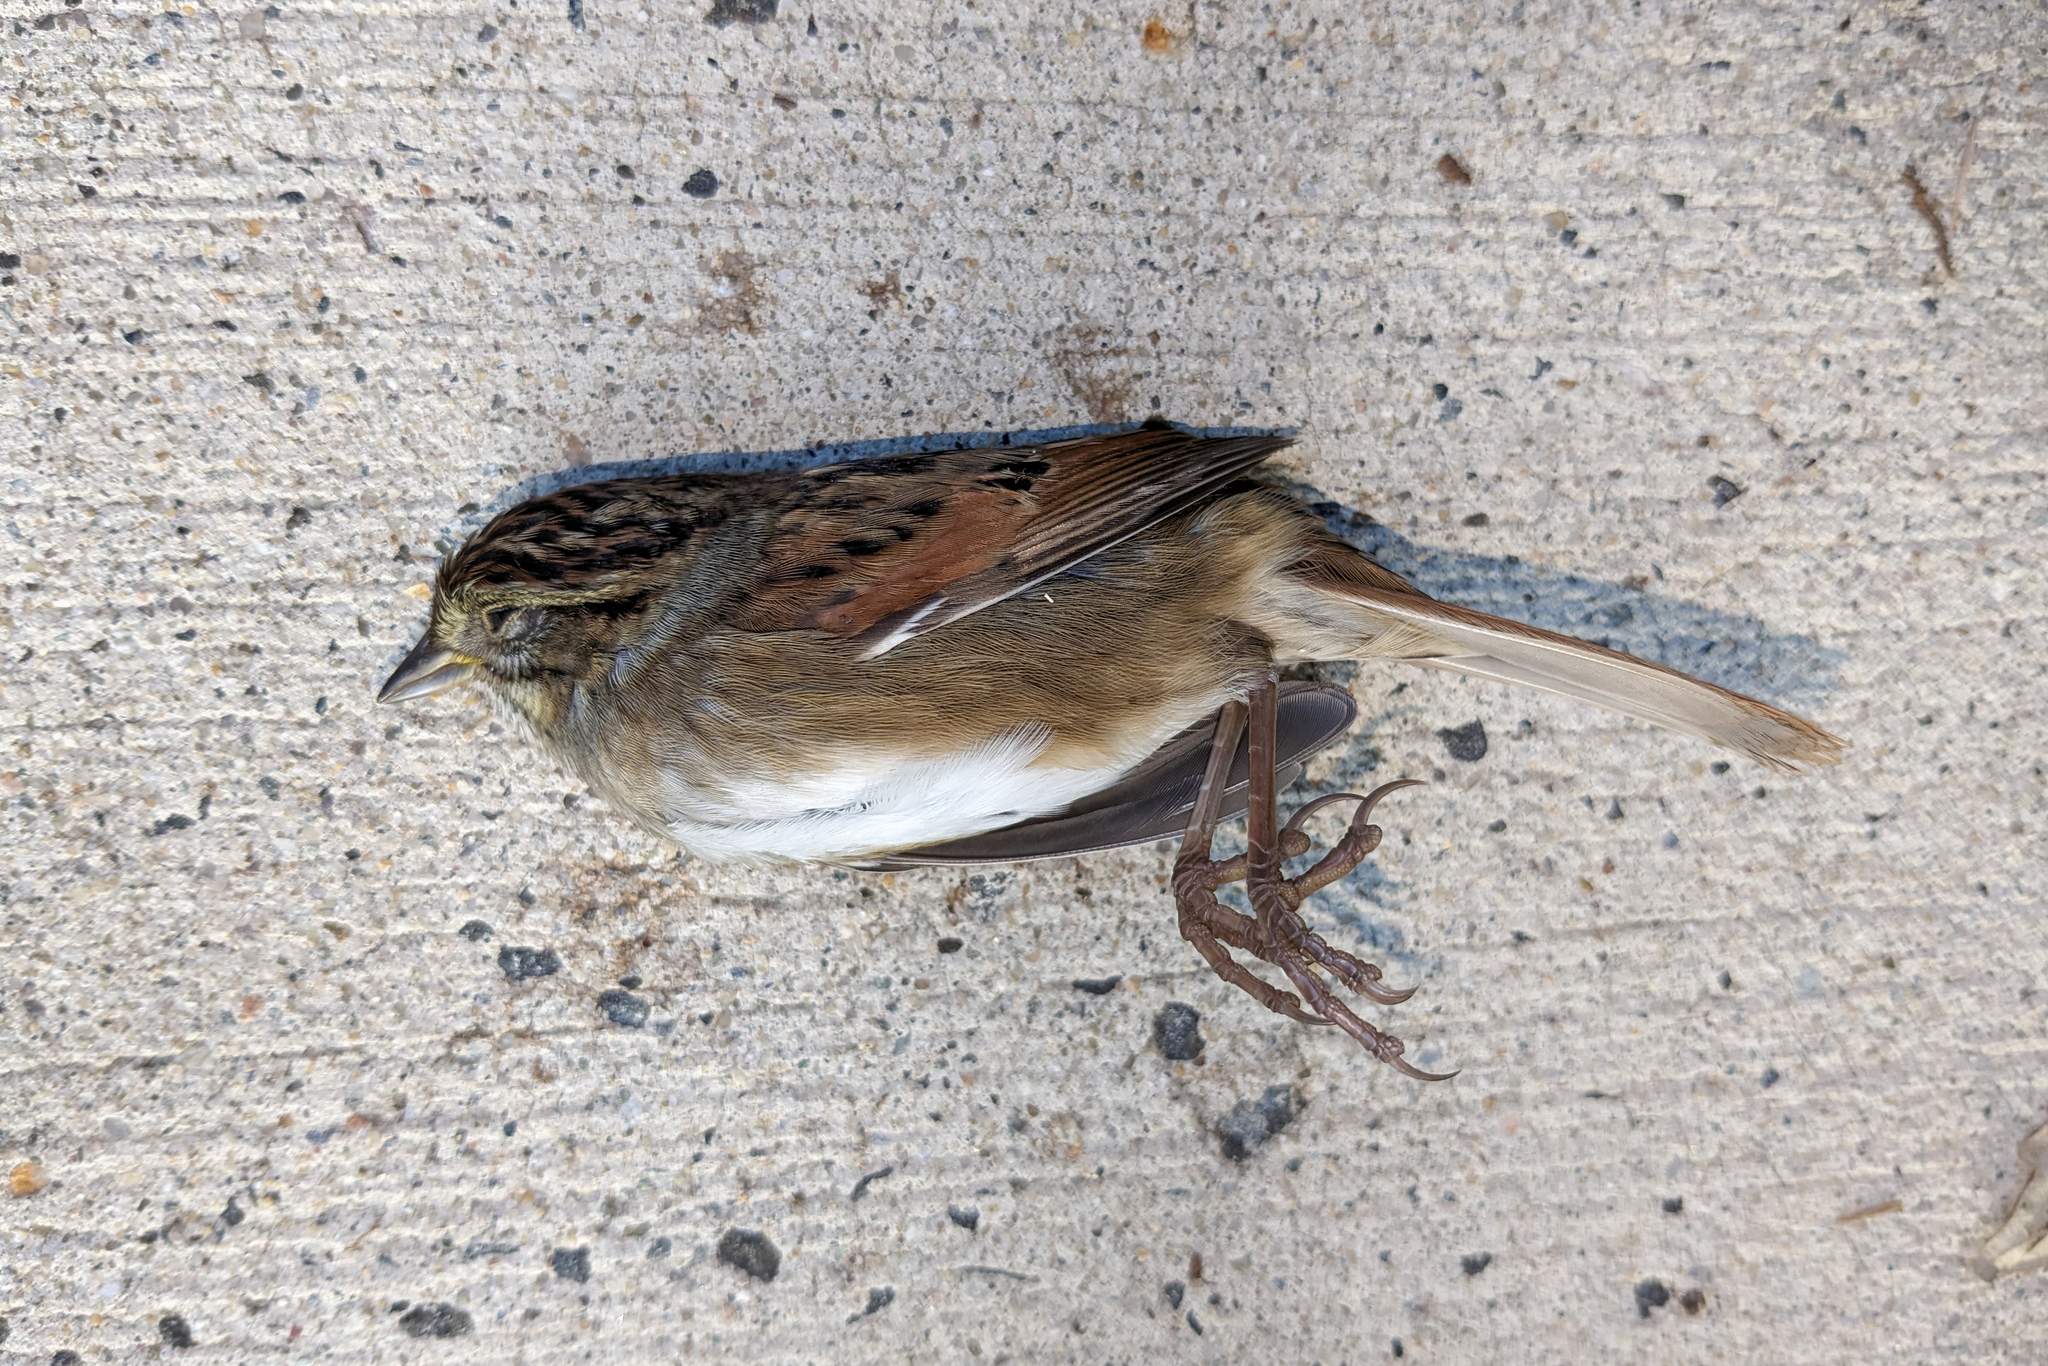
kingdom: Animalia
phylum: Chordata
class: Aves
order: Passeriformes
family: Passerellidae
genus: Melospiza
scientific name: Melospiza georgiana
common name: Swamp sparrow
